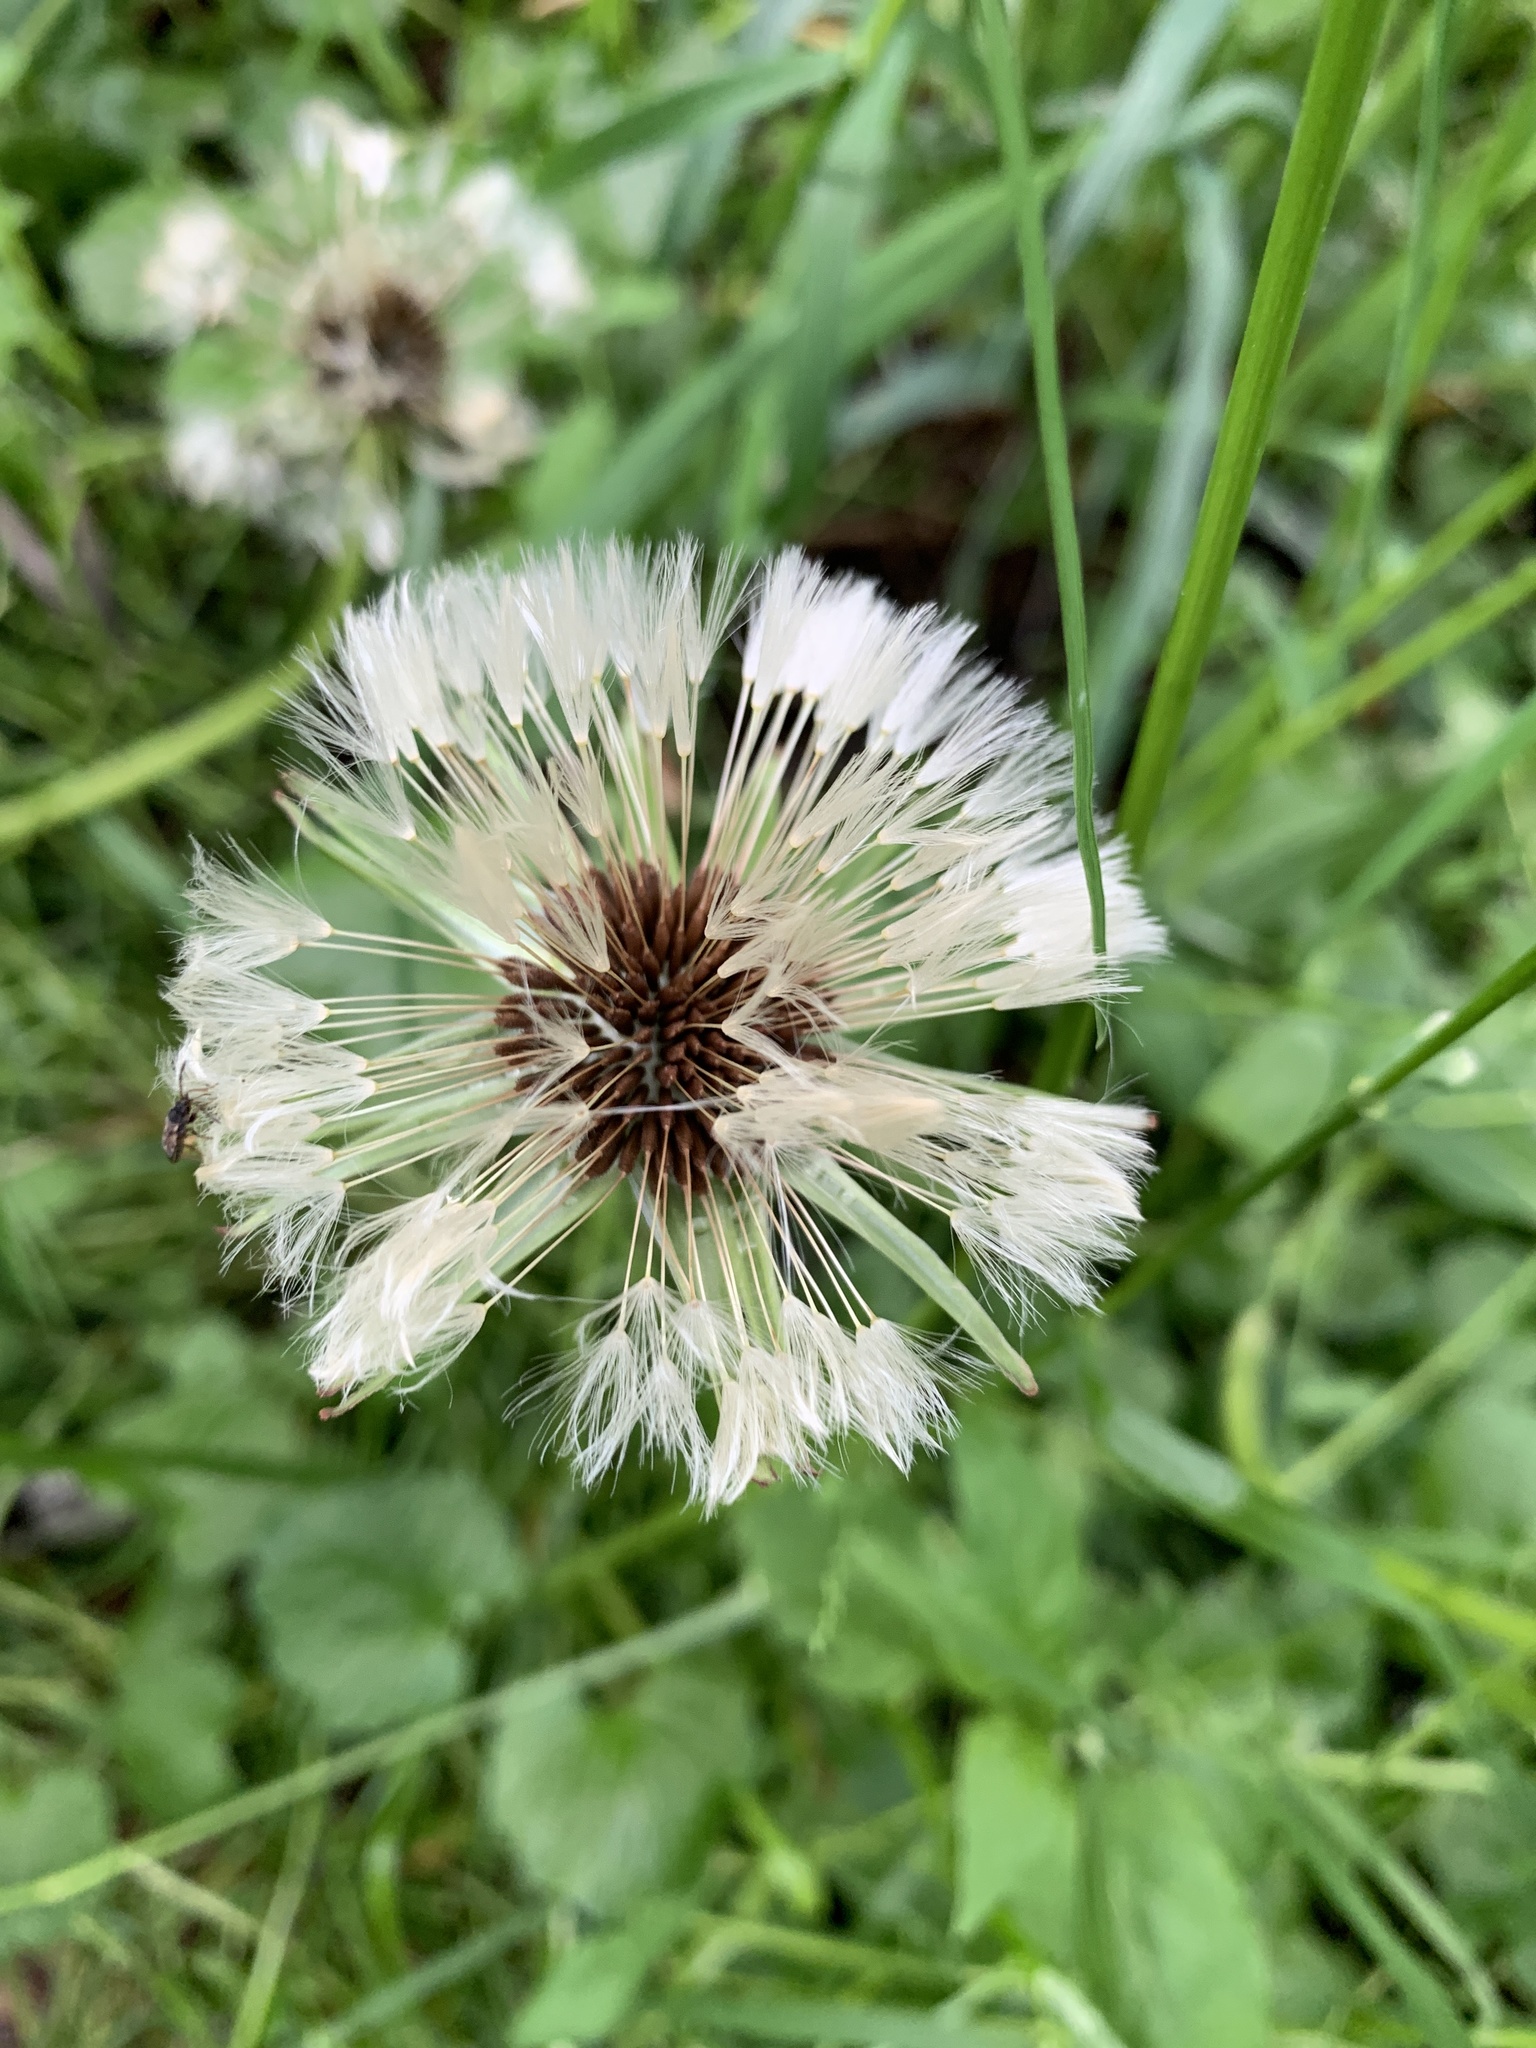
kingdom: Plantae
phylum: Tracheophyta
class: Magnoliopsida
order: Asterales
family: Asteraceae
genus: Taraxacum
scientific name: Taraxacum officinale
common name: Common dandelion
